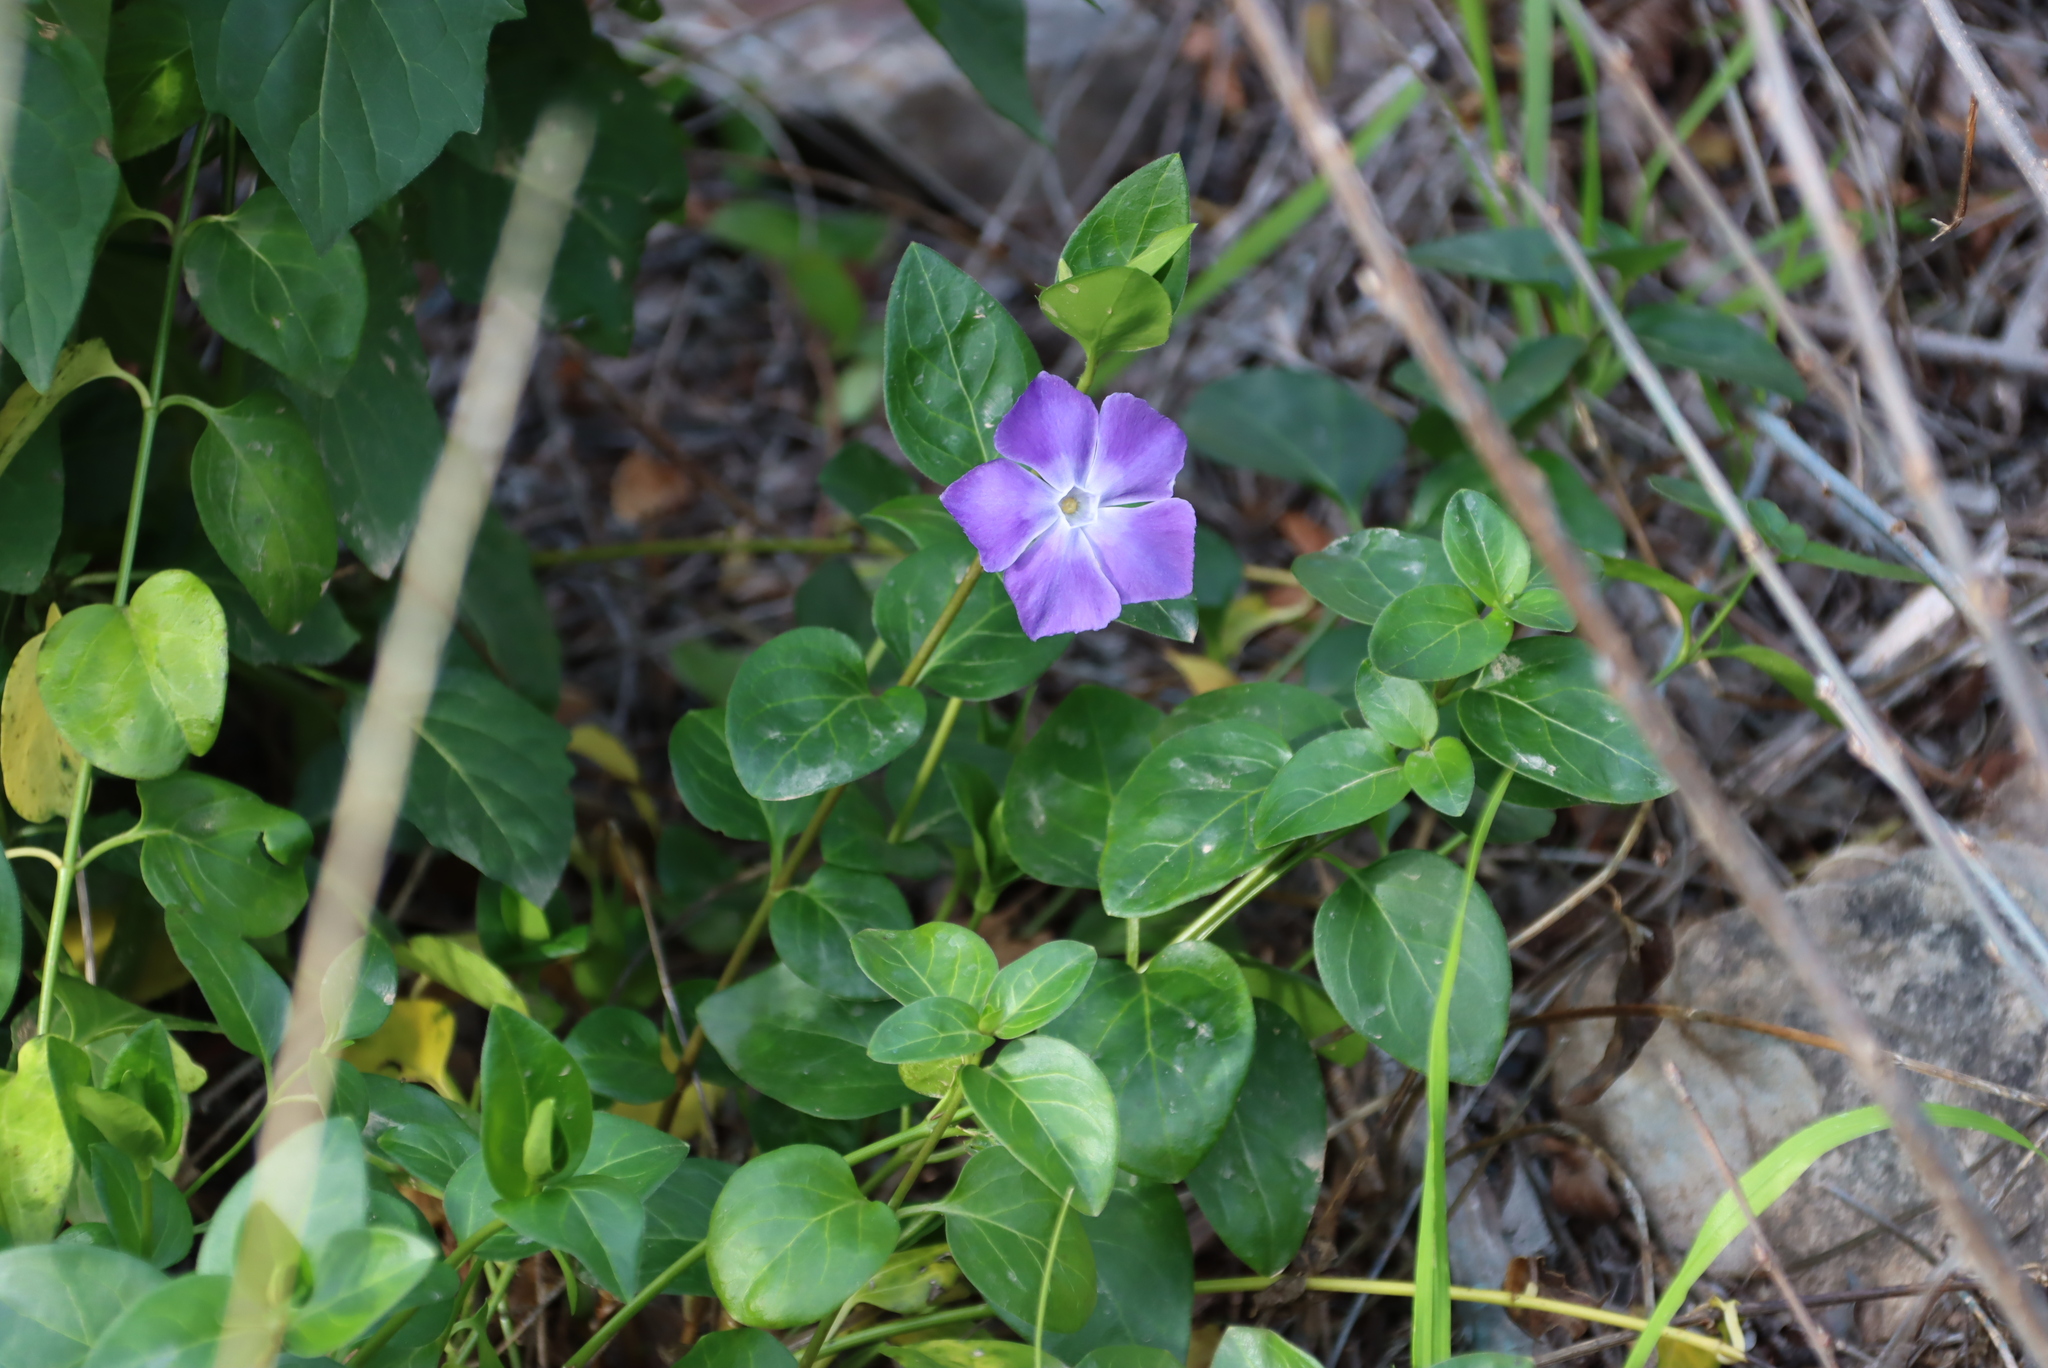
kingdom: Plantae
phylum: Tracheophyta
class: Magnoliopsida
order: Gentianales
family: Apocynaceae
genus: Vinca
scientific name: Vinca major
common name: Greater periwinkle
